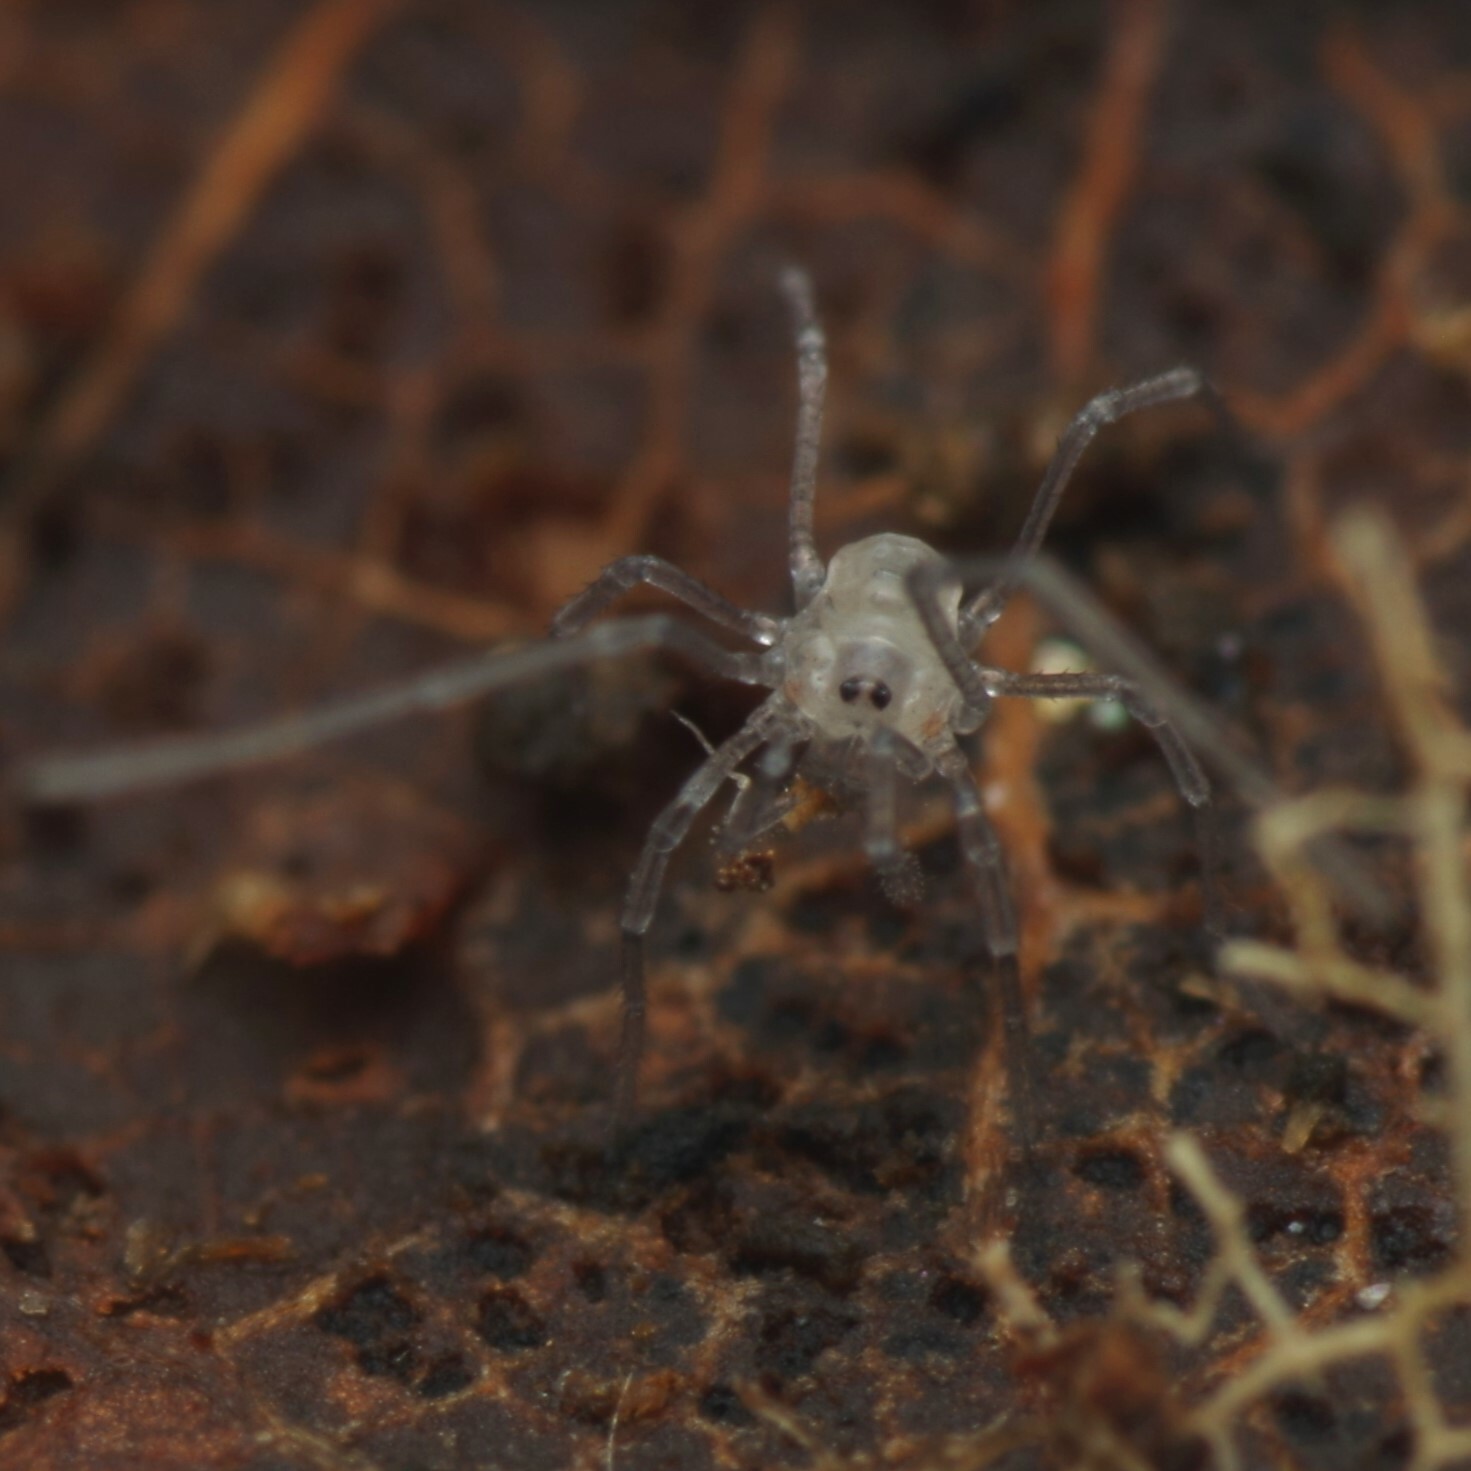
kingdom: Animalia
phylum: Arthropoda
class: Arachnida
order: Opiliones
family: Nemastomatidae
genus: Mitostoma
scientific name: Mitostoma chrysomelas
